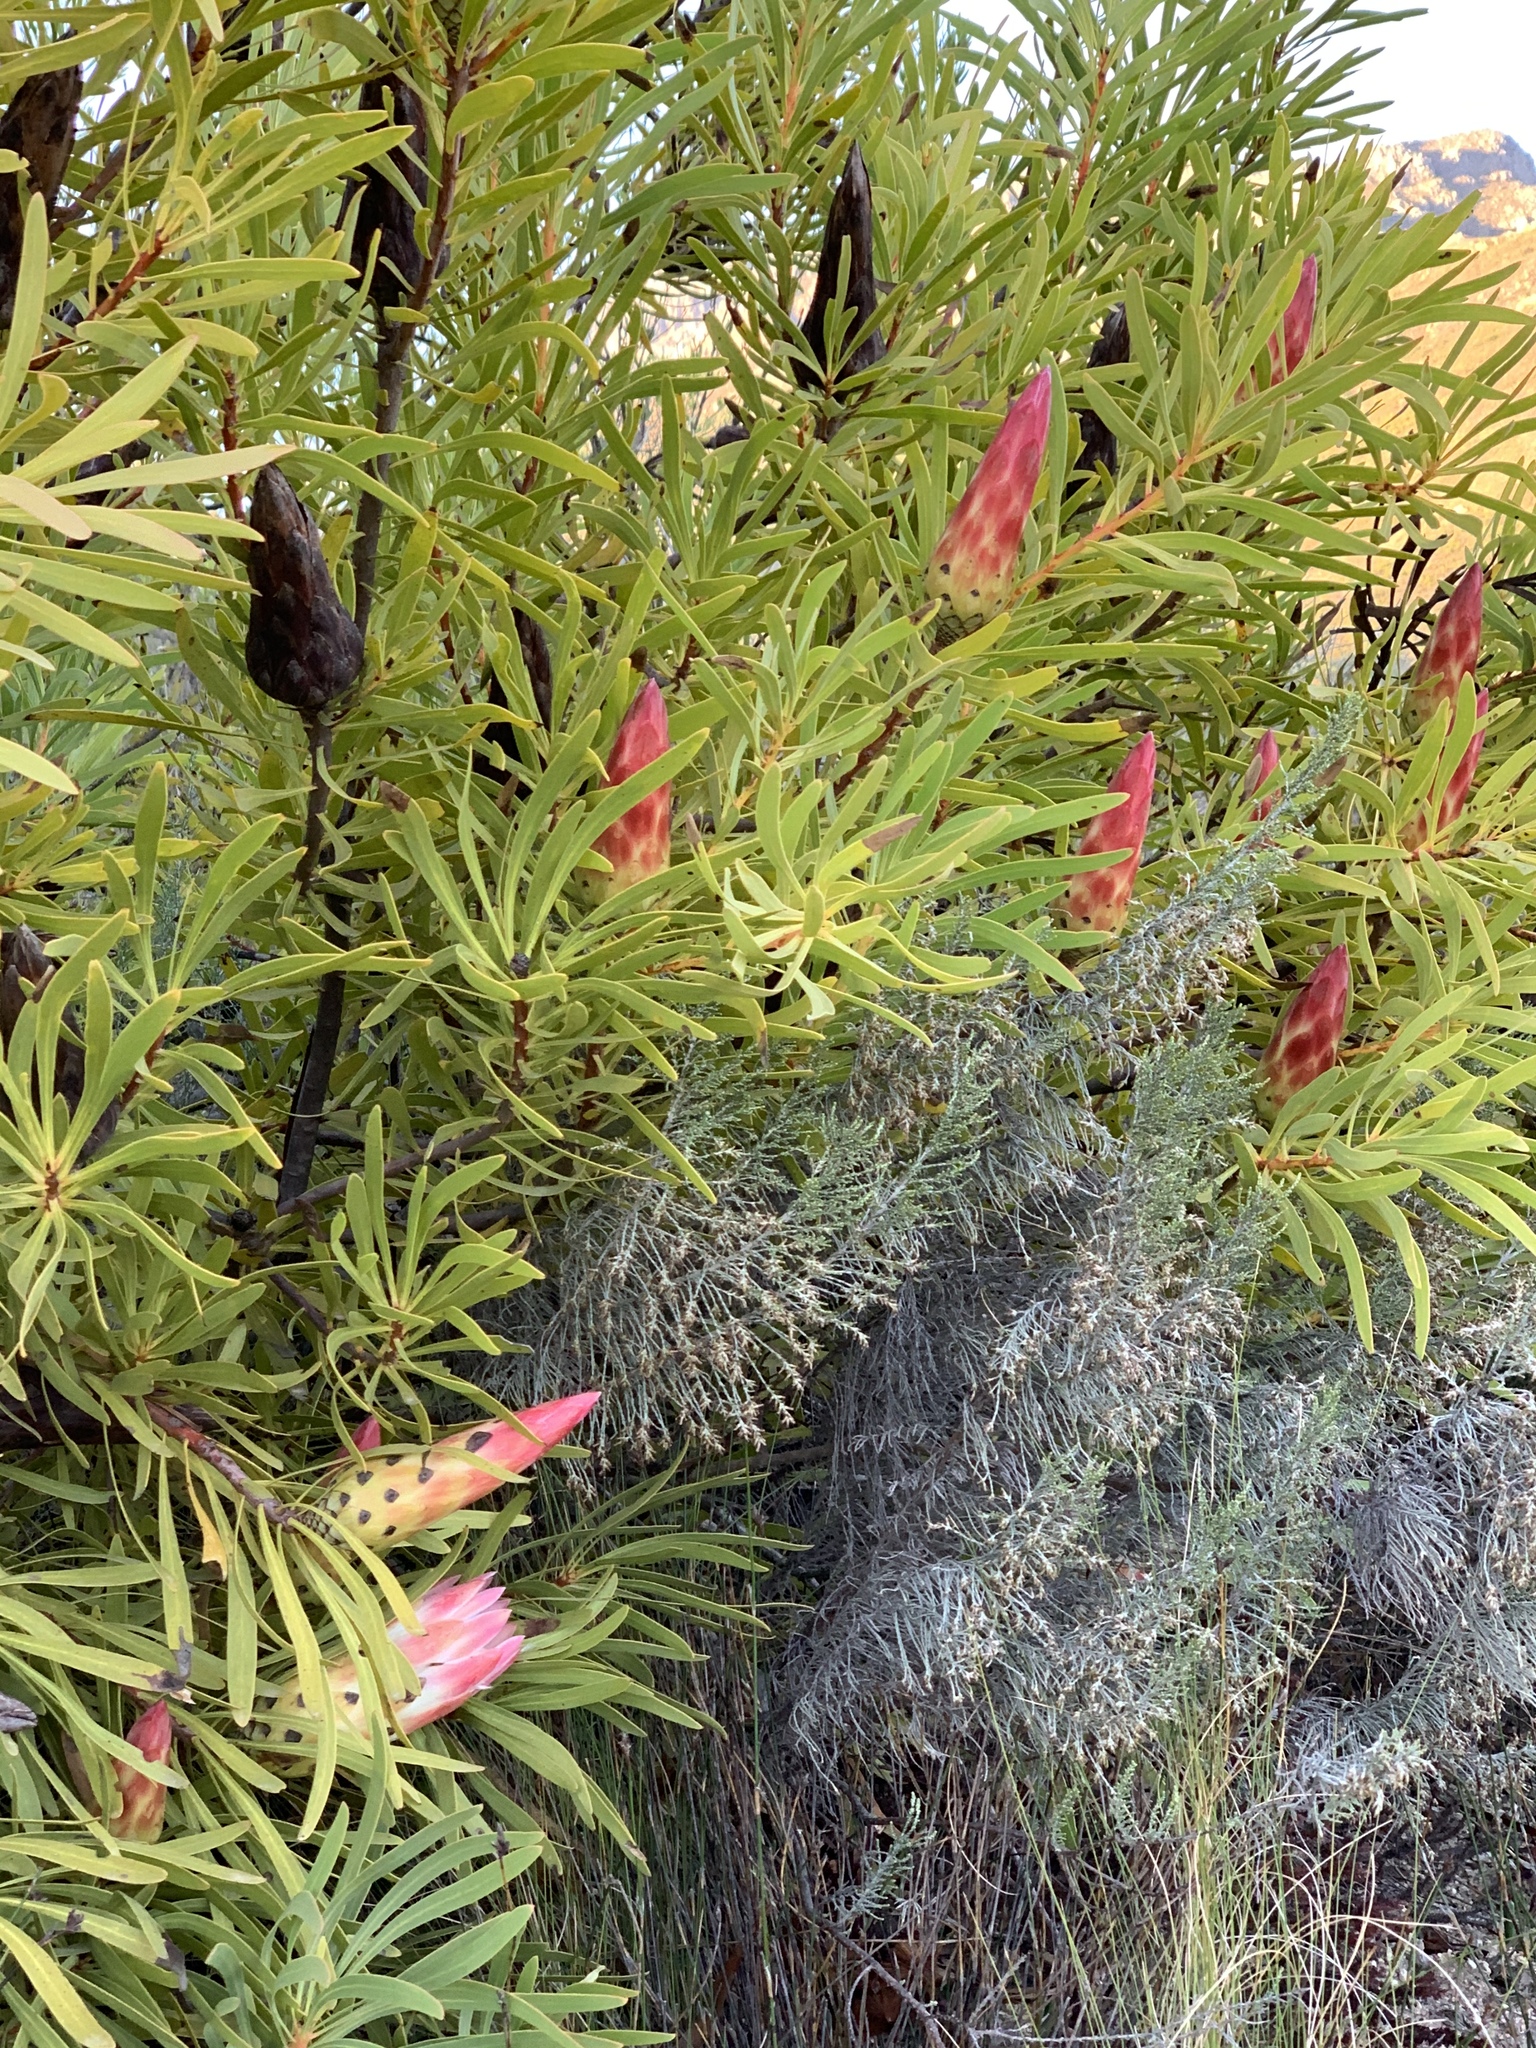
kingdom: Plantae
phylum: Tracheophyta
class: Magnoliopsida
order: Proteales
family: Proteaceae
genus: Protea
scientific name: Protea repens
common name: Sugarbush
